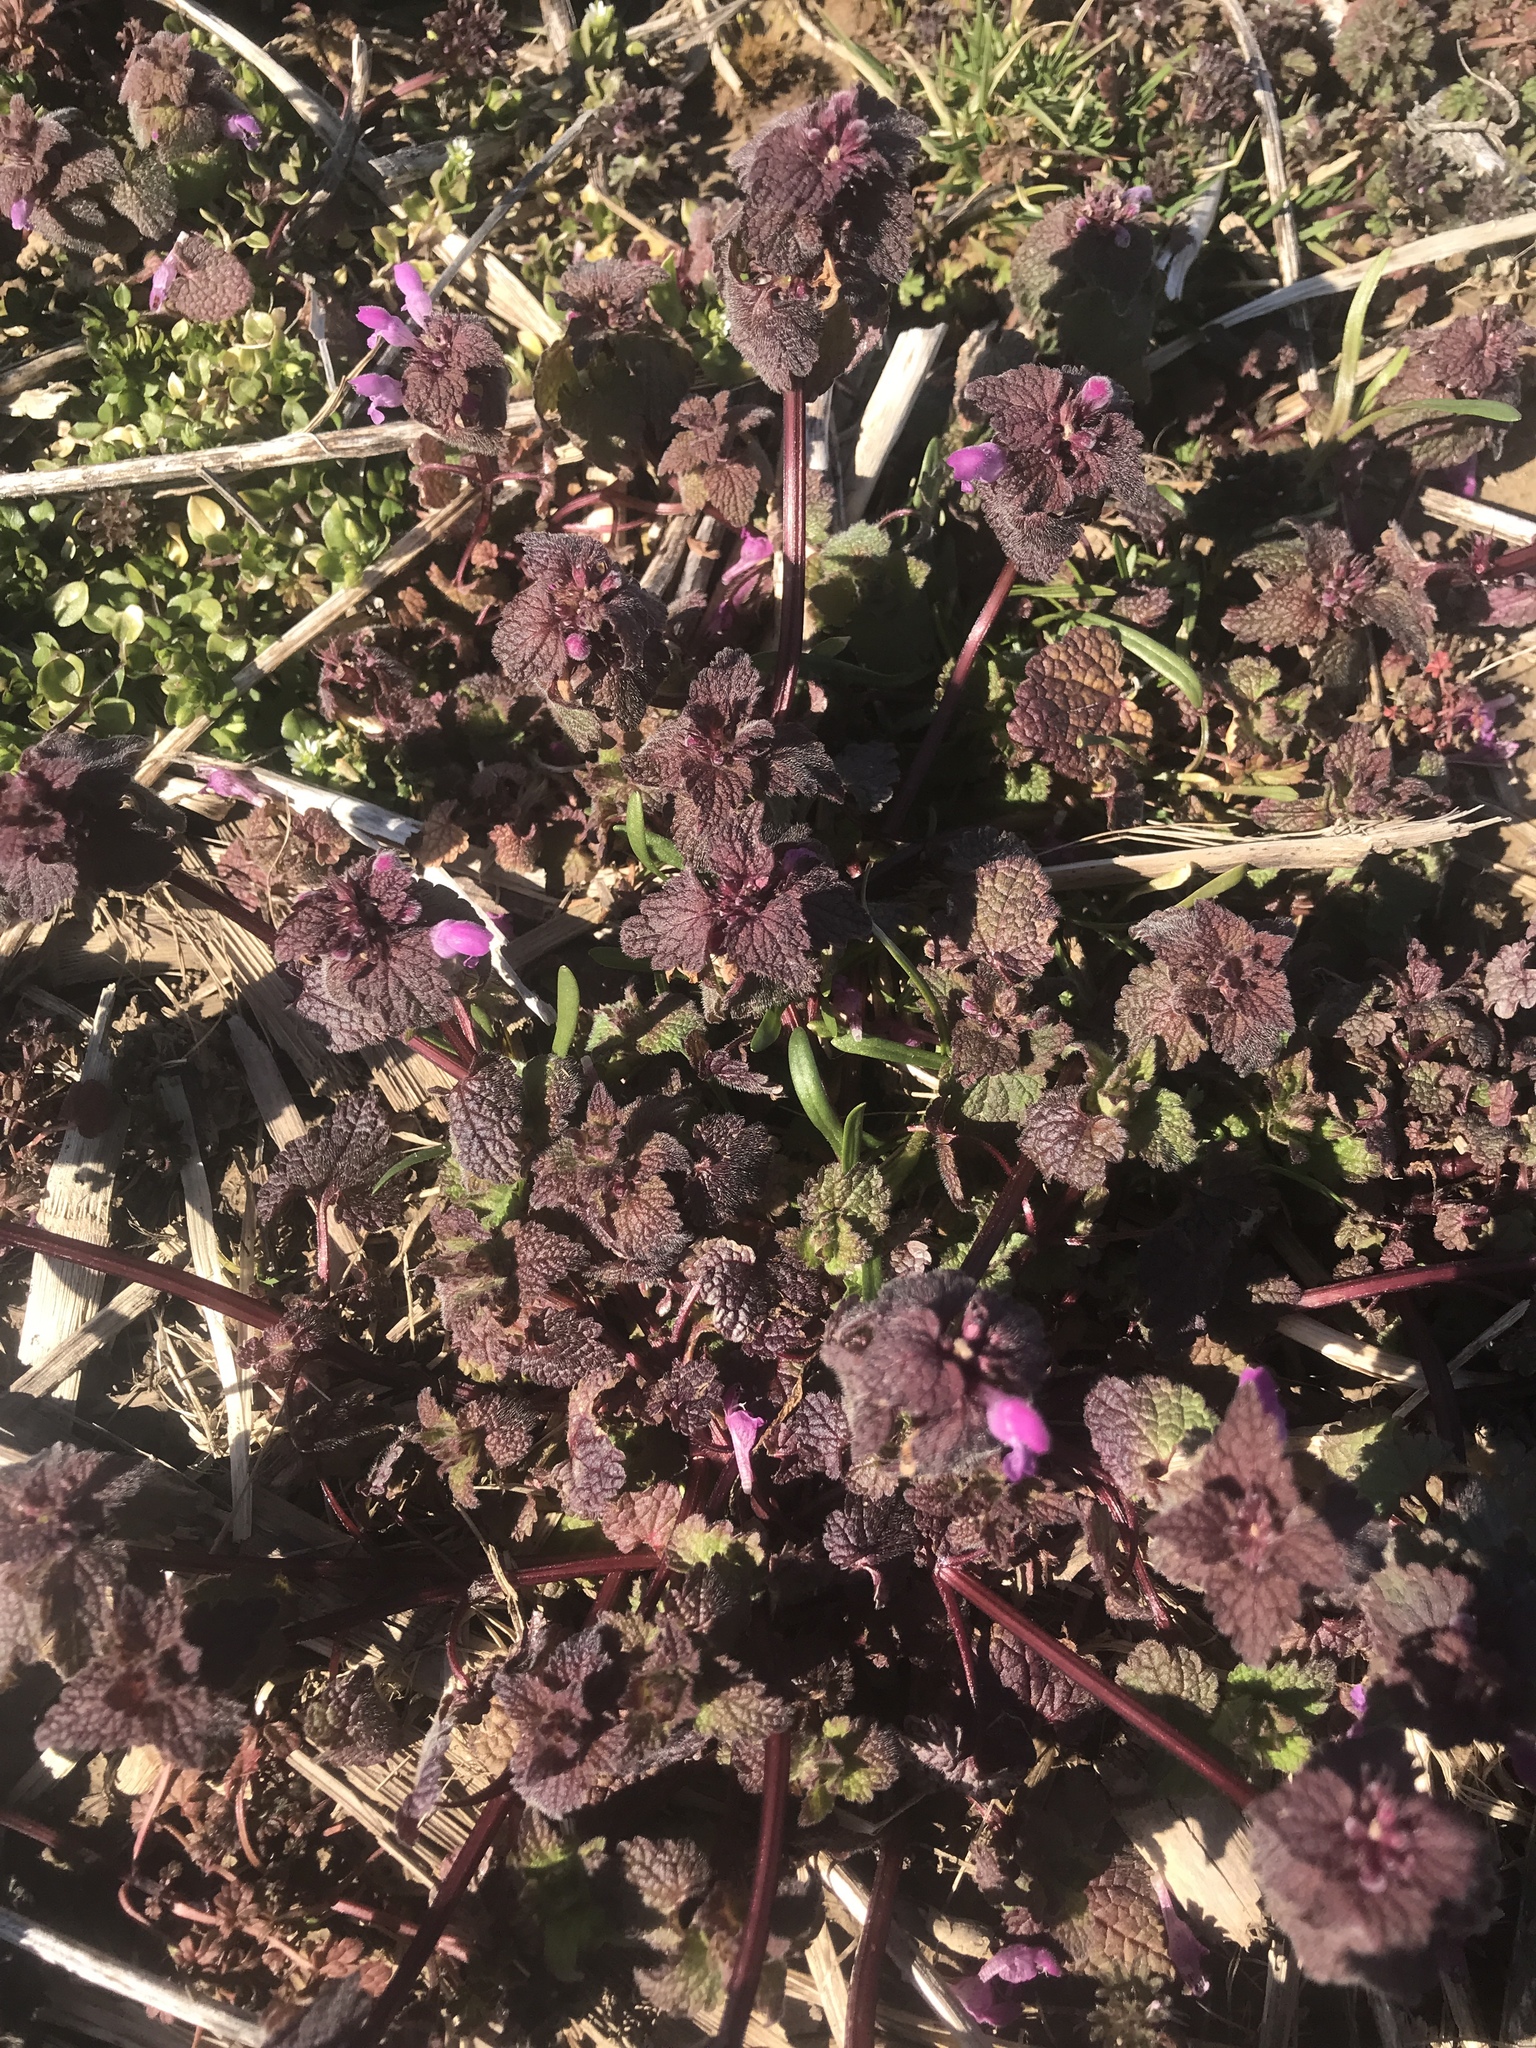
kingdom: Plantae
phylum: Tracheophyta
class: Magnoliopsida
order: Lamiales
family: Lamiaceae
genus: Lamium
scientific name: Lamium purpureum
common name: Red dead-nettle
